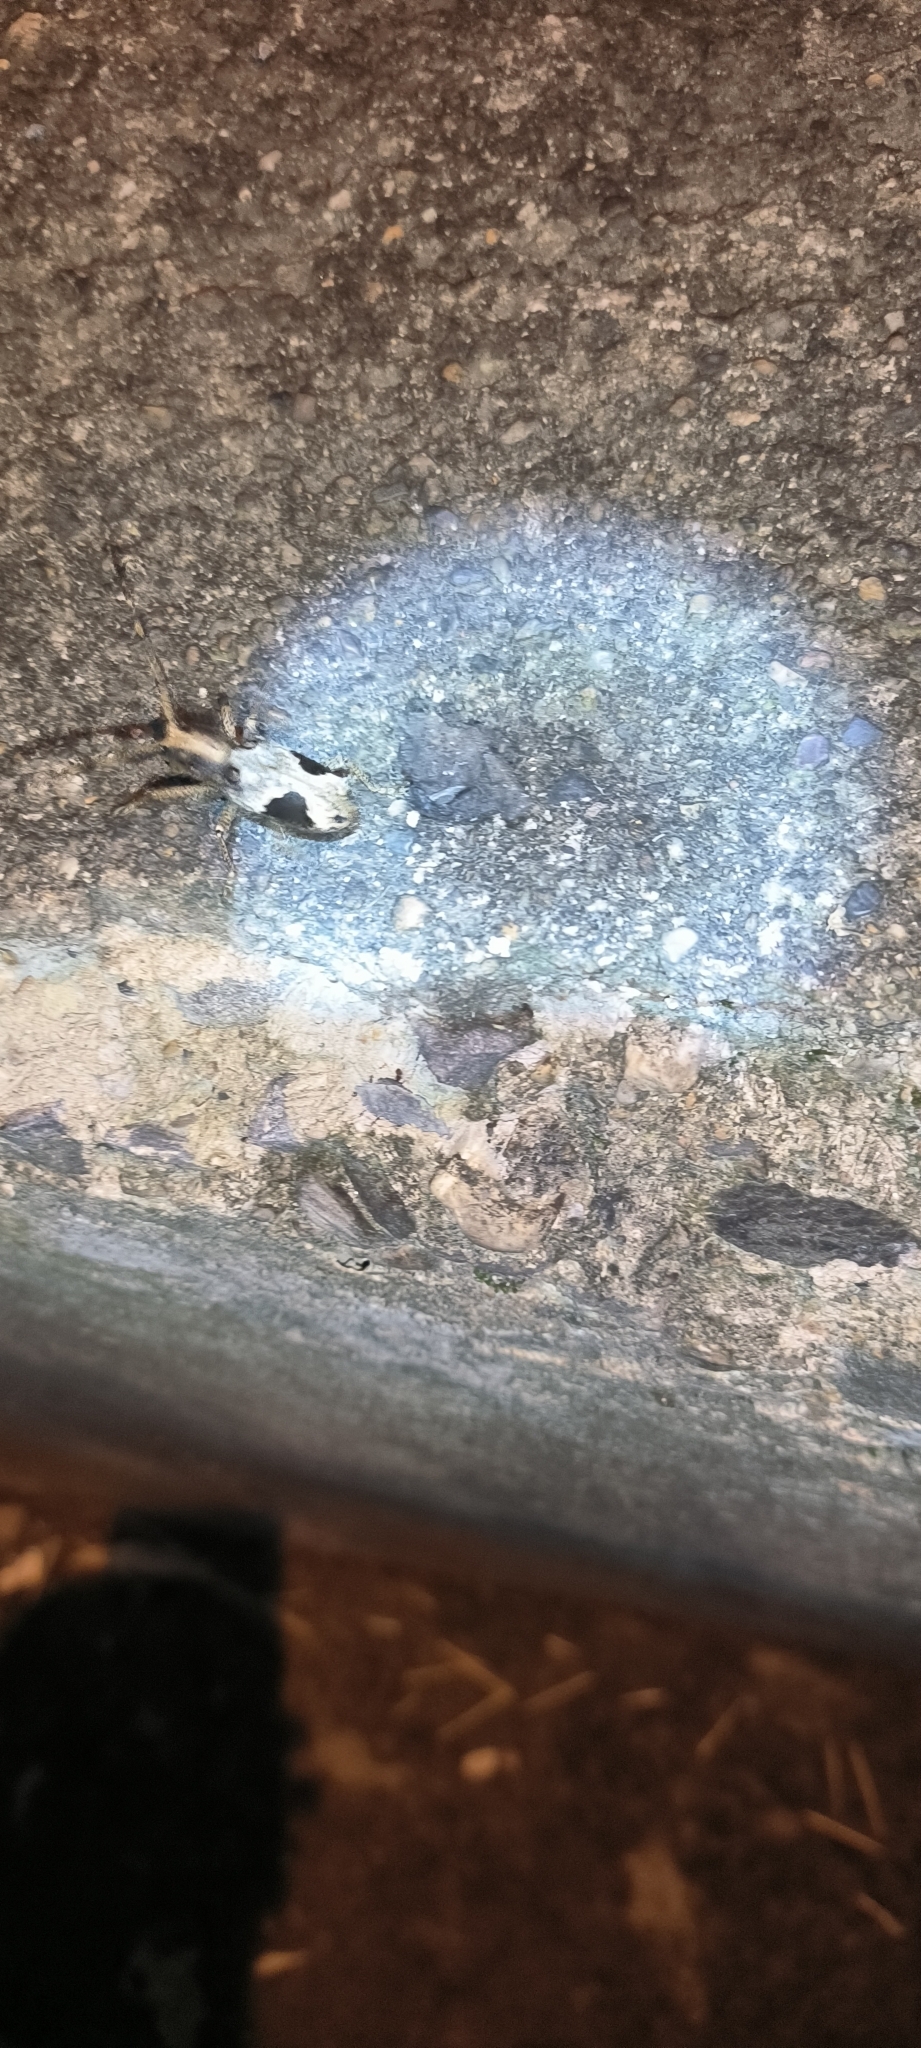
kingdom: Animalia
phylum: Arthropoda
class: Insecta
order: Coleoptera
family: Cerambycidae
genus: Paraleprodera
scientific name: Paraleprodera diophthalma
